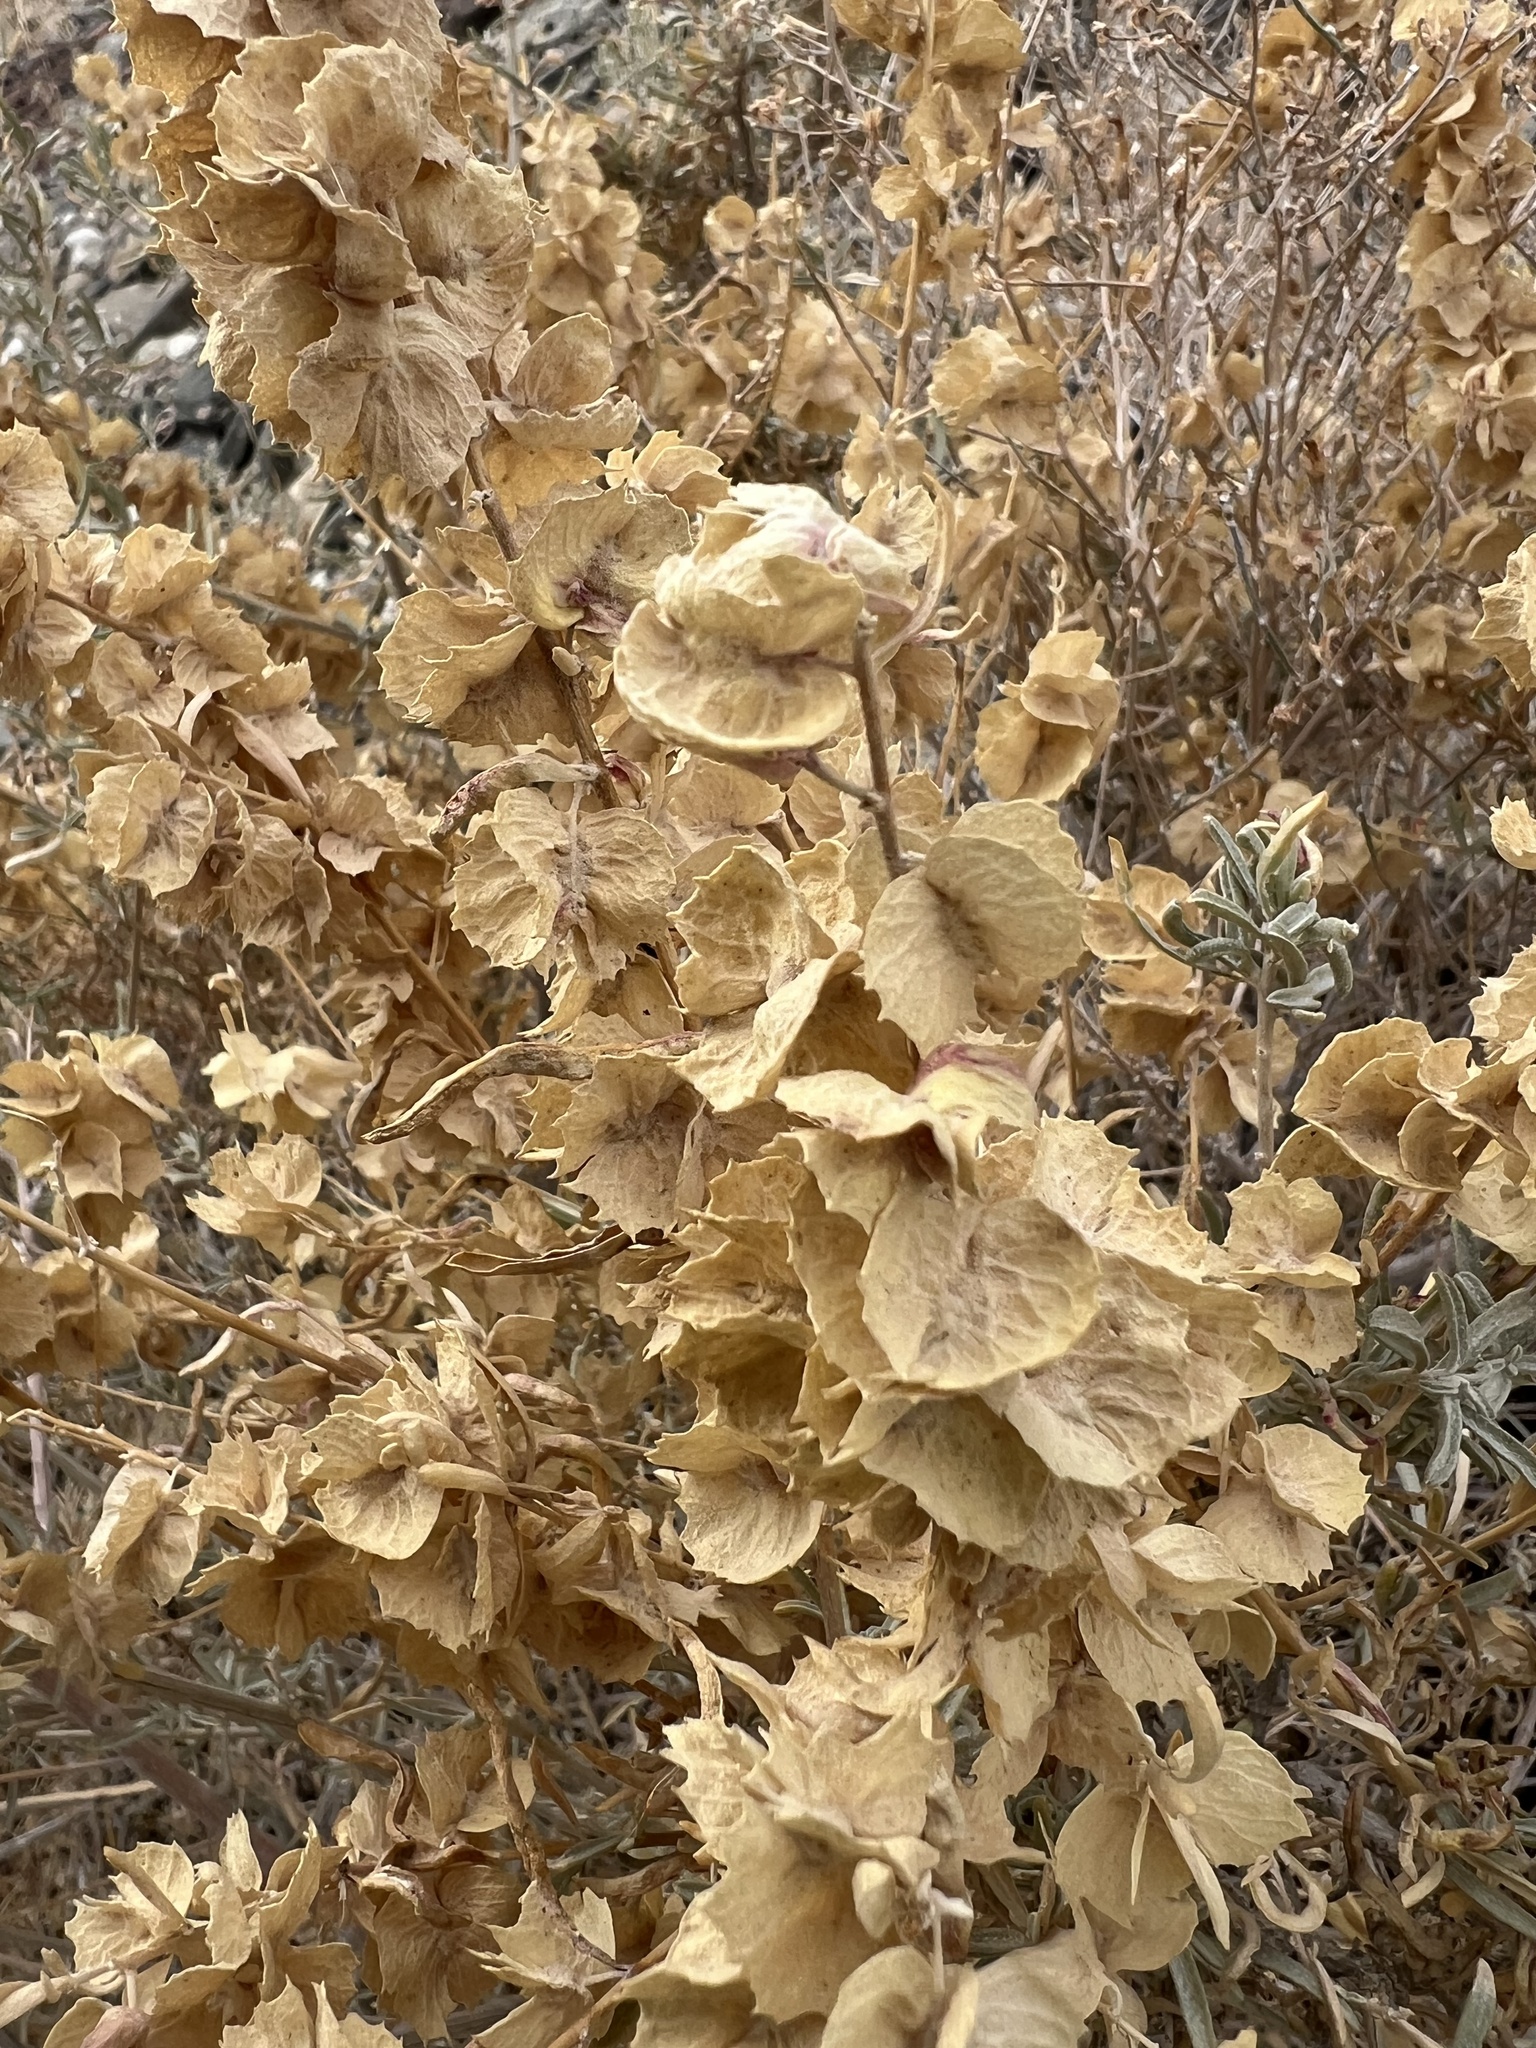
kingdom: Plantae
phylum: Tracheophyta
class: Magnoliopsida
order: Caryophyllales
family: Amaranthaceae
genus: Atriplex
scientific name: Atriplex canescens
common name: Four-wing saltbush
